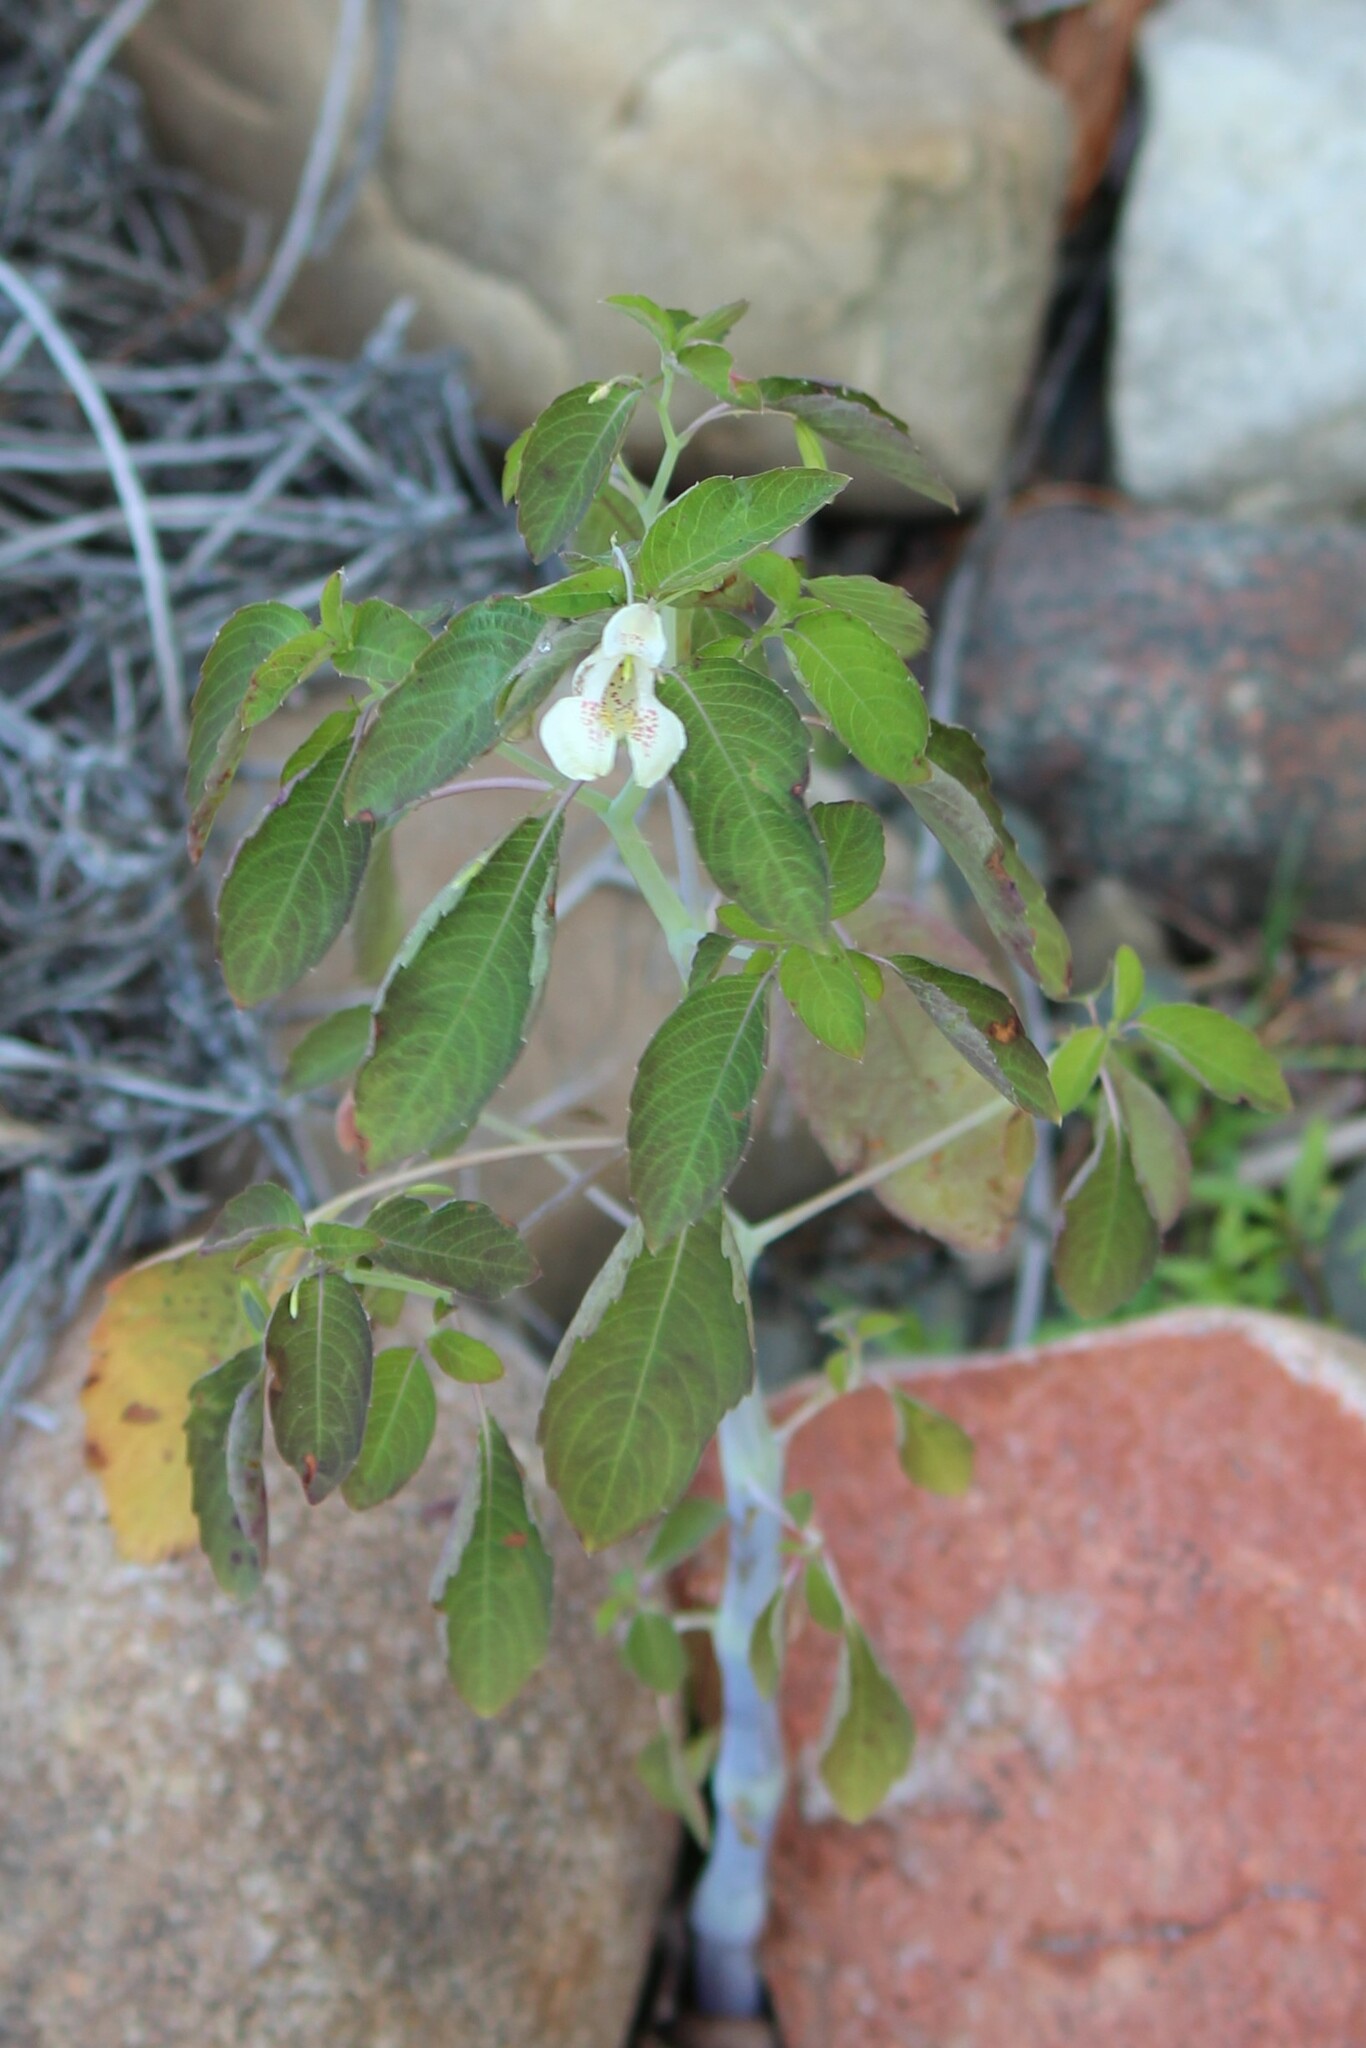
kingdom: Plantae
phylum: Tracheophyta
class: Magnoliopsida
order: Ericales
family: Balsaminaceae
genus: Impatiens
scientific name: Impatiens capensis
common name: Orange balsam
